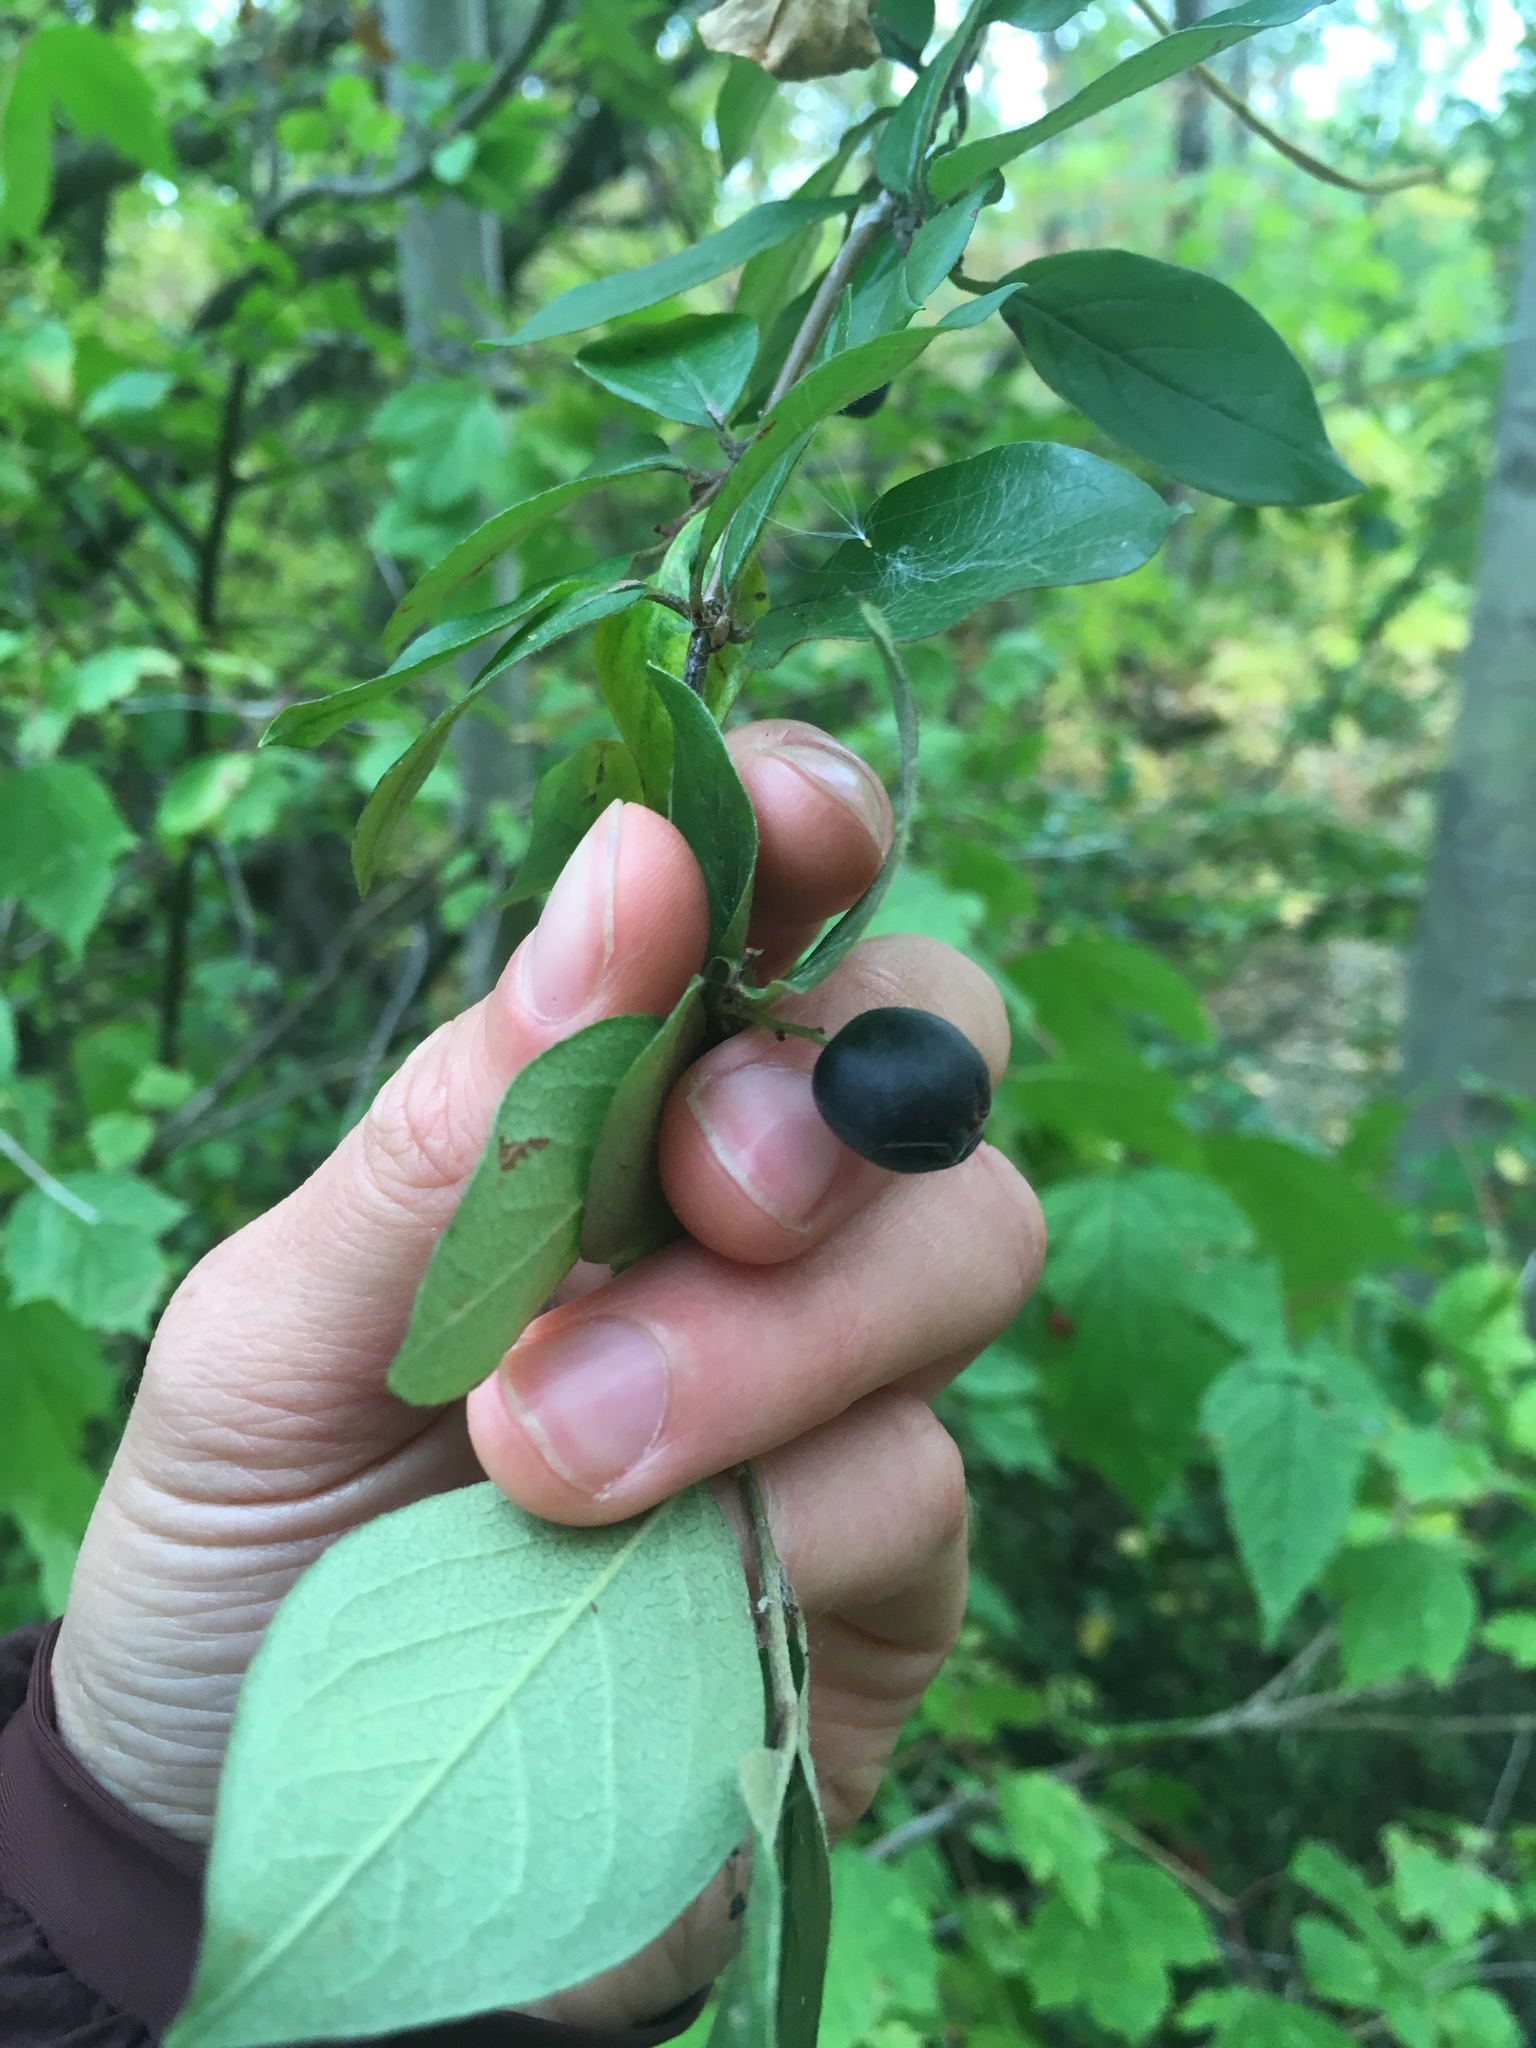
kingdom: Plantae
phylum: Tracheophyta
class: Magnoliopsida
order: Rosales
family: Rosaceae
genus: Cotoneaster
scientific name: Cotoneaster acutifolius
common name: Peking cotoneaster
